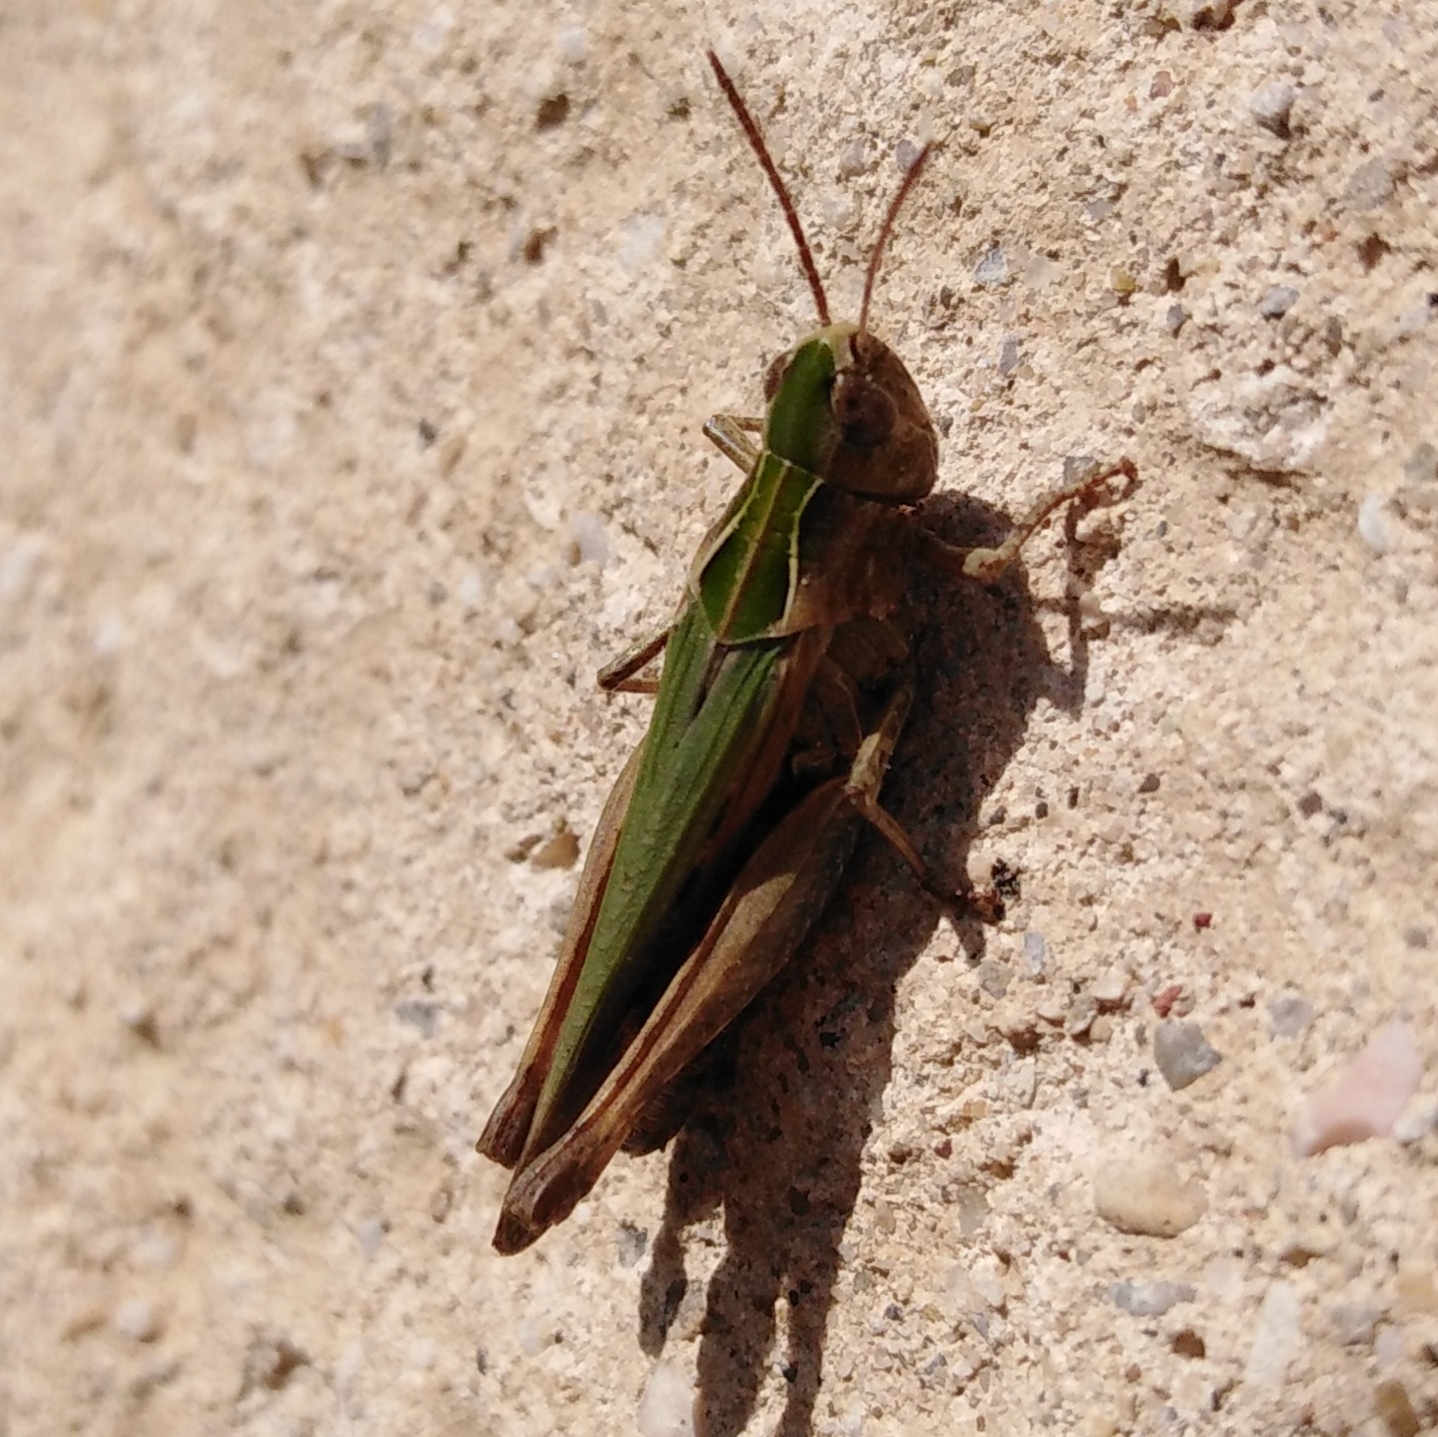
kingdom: Animalia
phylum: Arthropoda
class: Insecta
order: Orthoptera
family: Acrididae
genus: Omocestus
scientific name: Omocestus rufipes
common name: Woodland grasshopper
